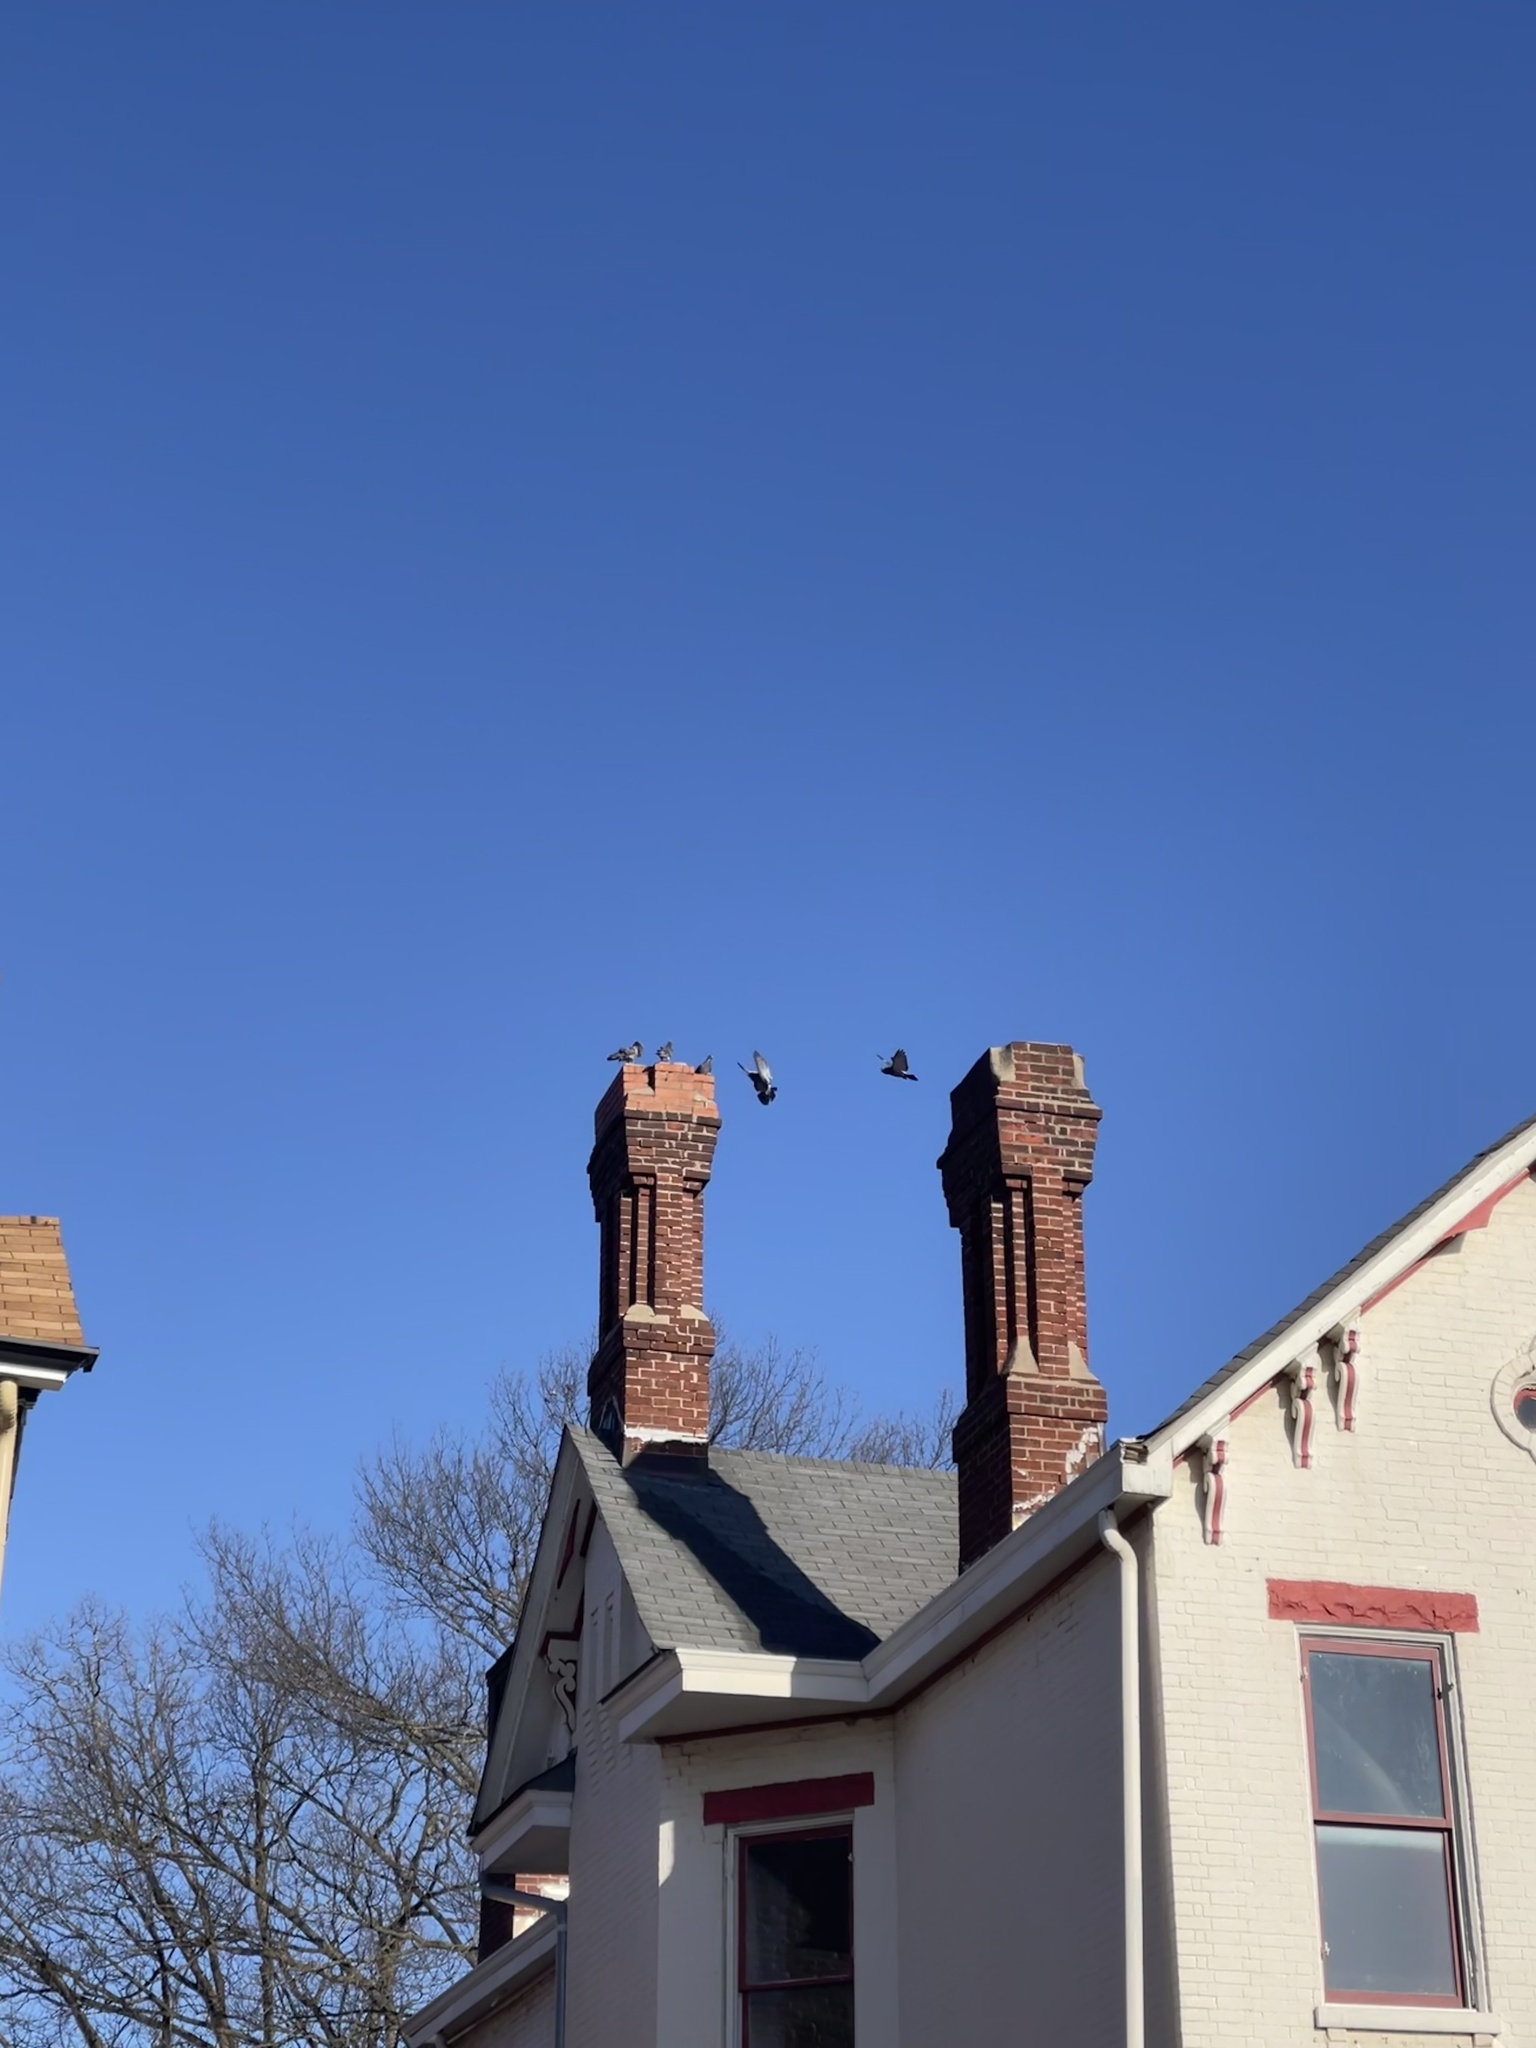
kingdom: Animalia
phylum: Chordata
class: Aves
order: Columbiformes
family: Columbidae
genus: Columba
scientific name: Columba livia
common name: Rock pigeon
